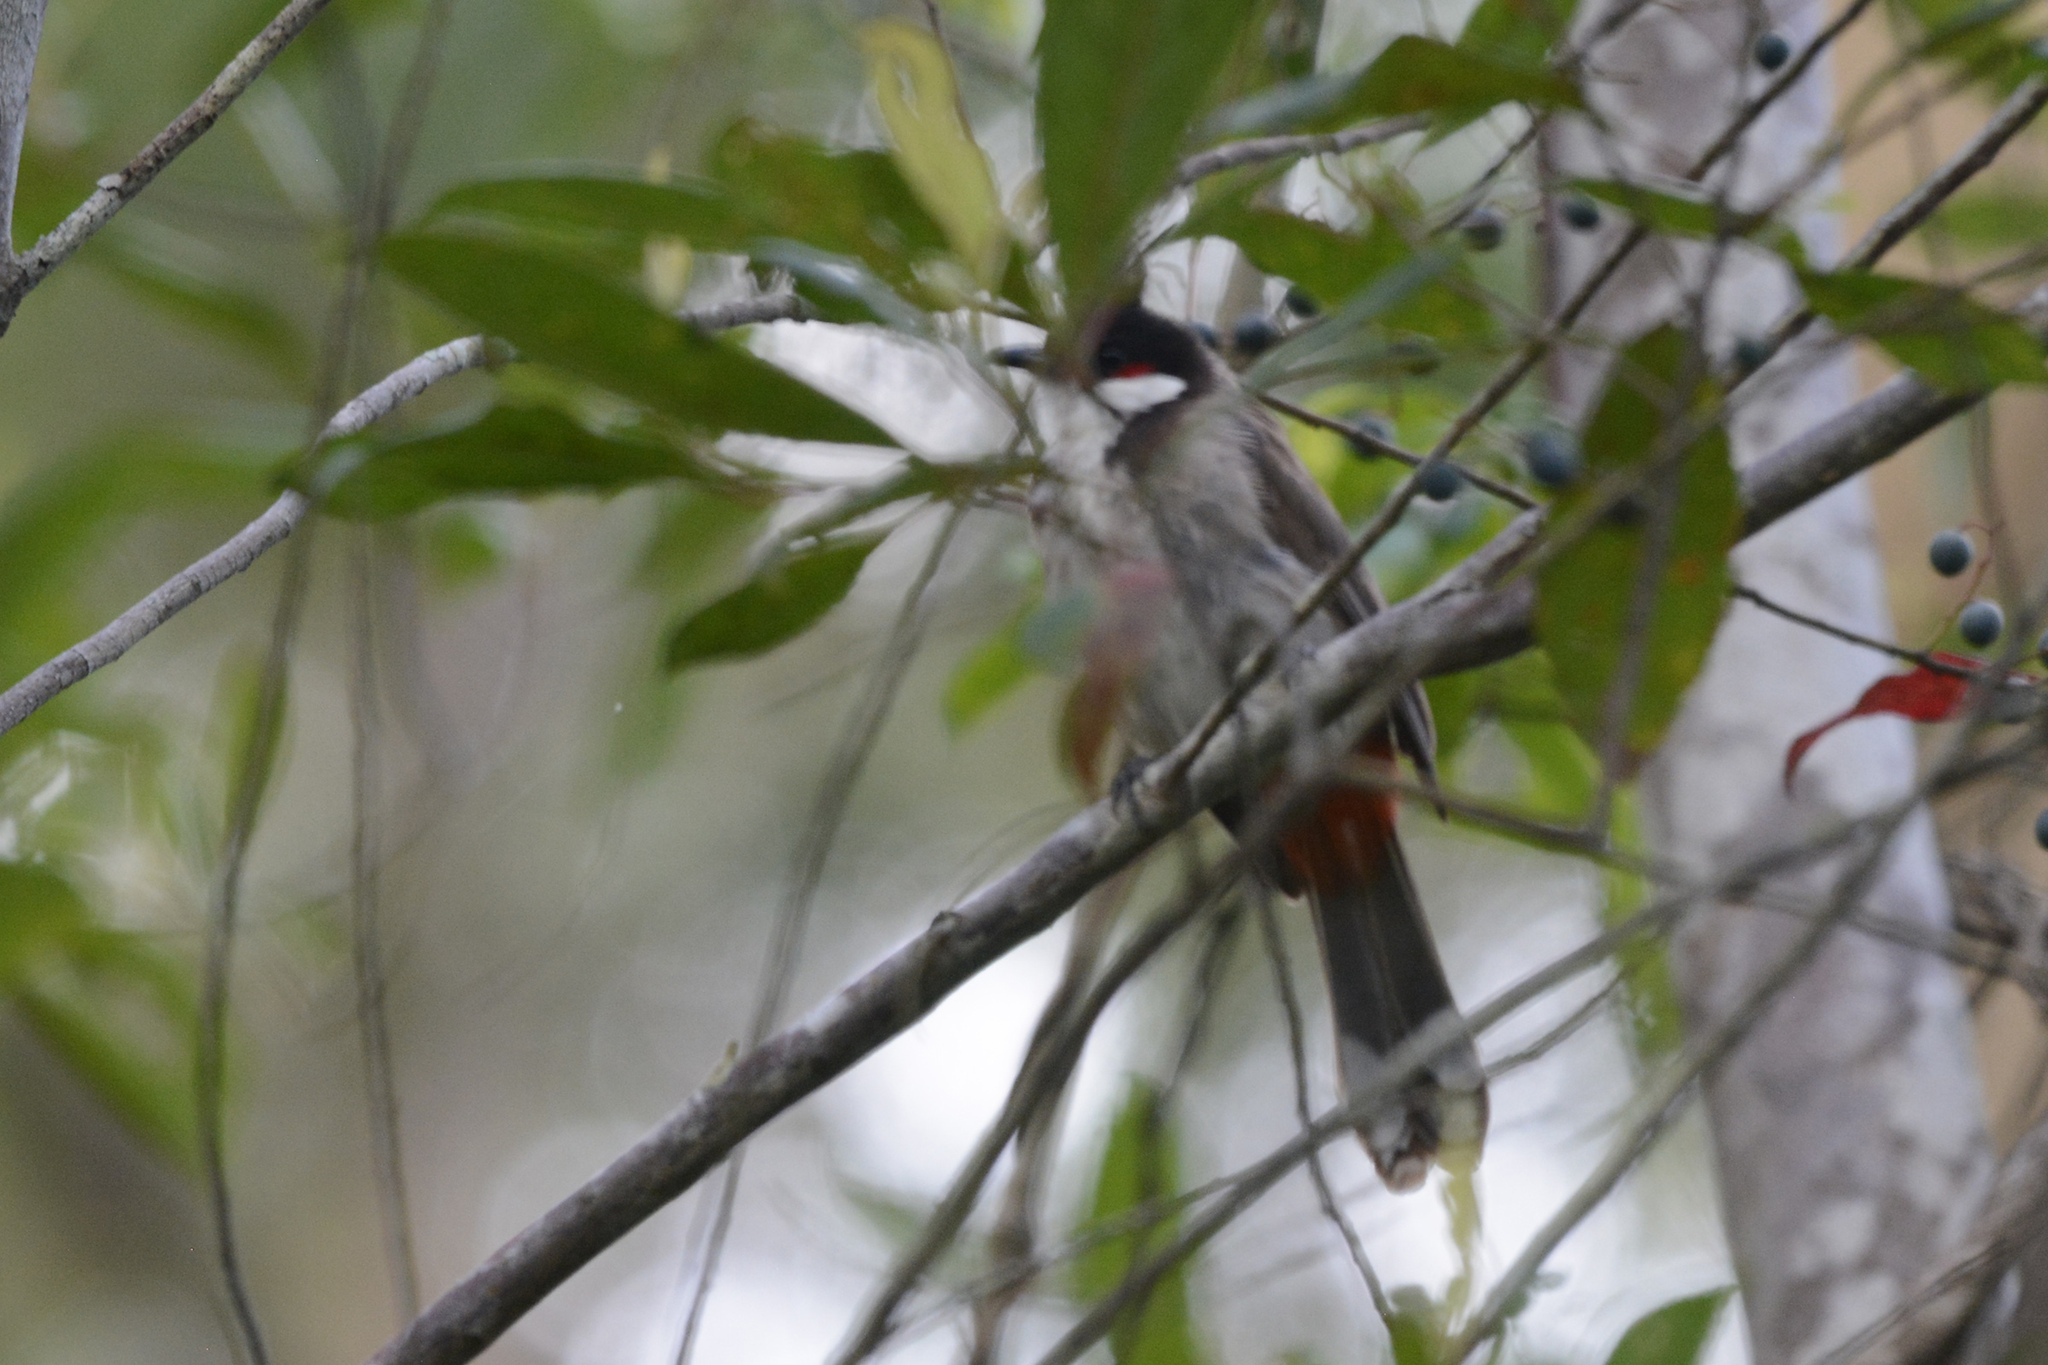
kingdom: Animalia
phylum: Chordata
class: Aves
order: Passeriformes
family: Pycnonotidae
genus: Pycnonotus
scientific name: Pycnonotus jocosus
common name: Red-whiskered bulbul
